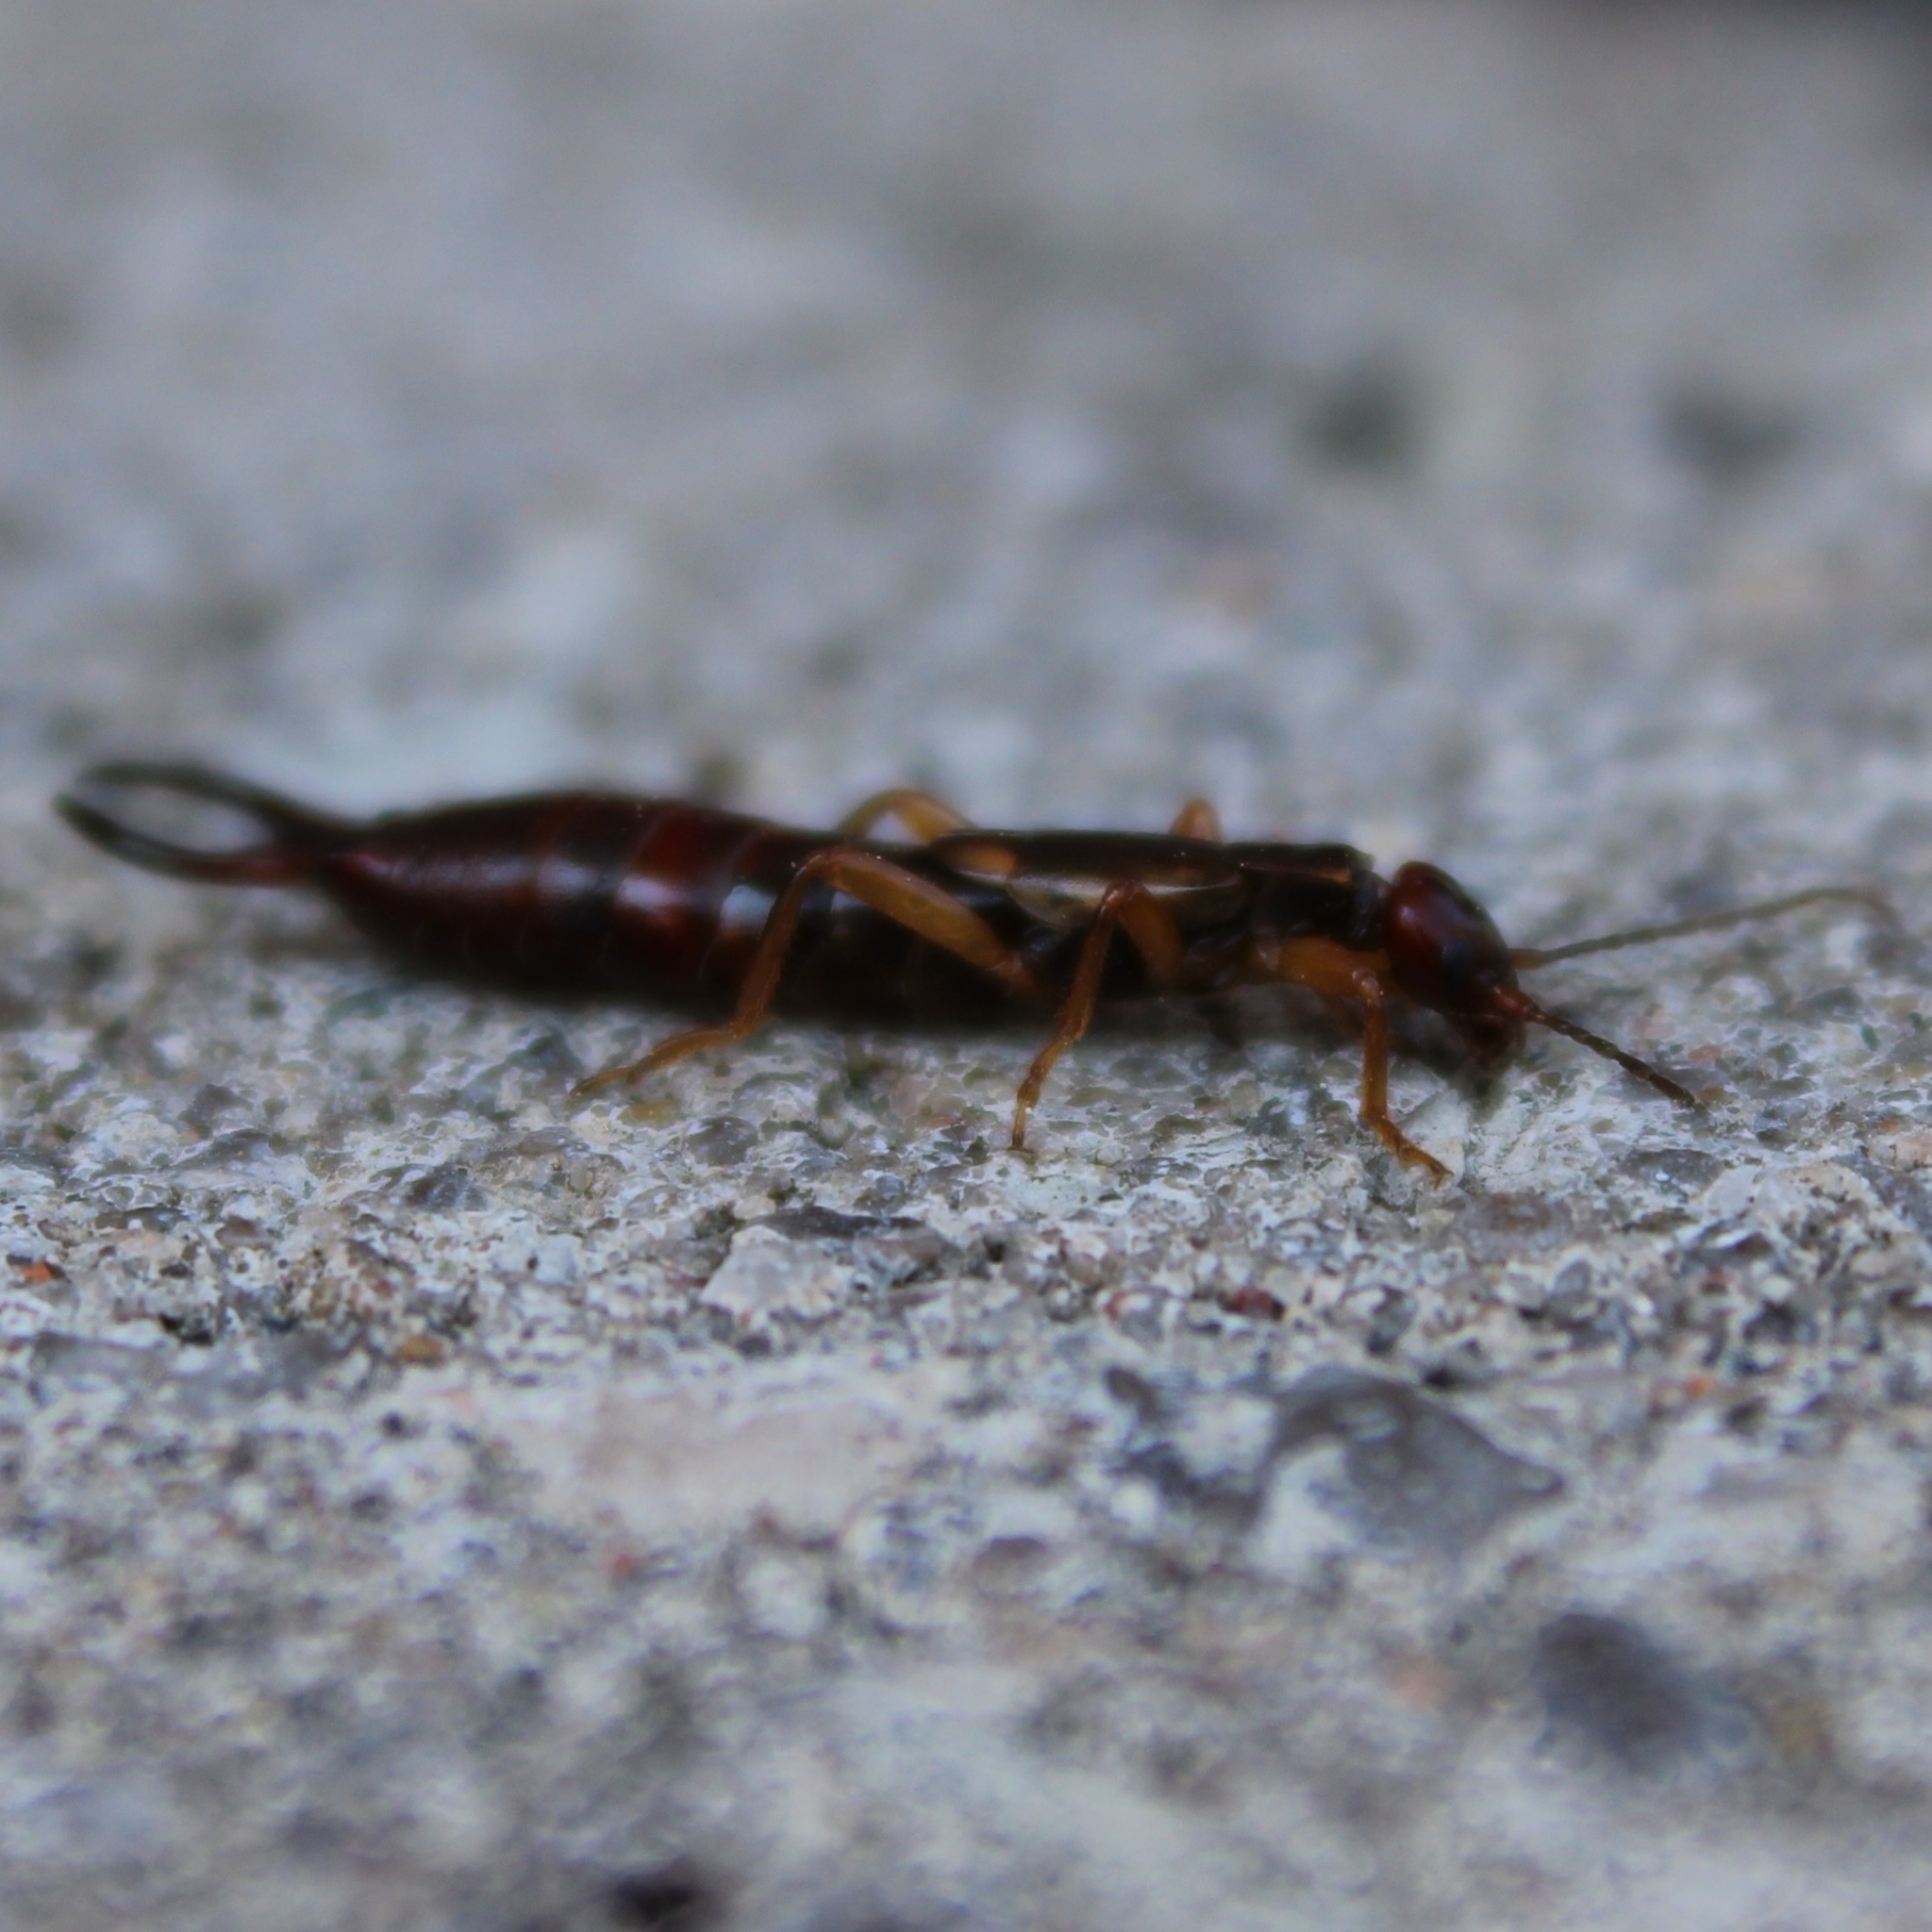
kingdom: Animalia
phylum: Arthropoda
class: Insecta
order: Dermaptera
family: Forficulidae
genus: Forficula
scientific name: Forficula
